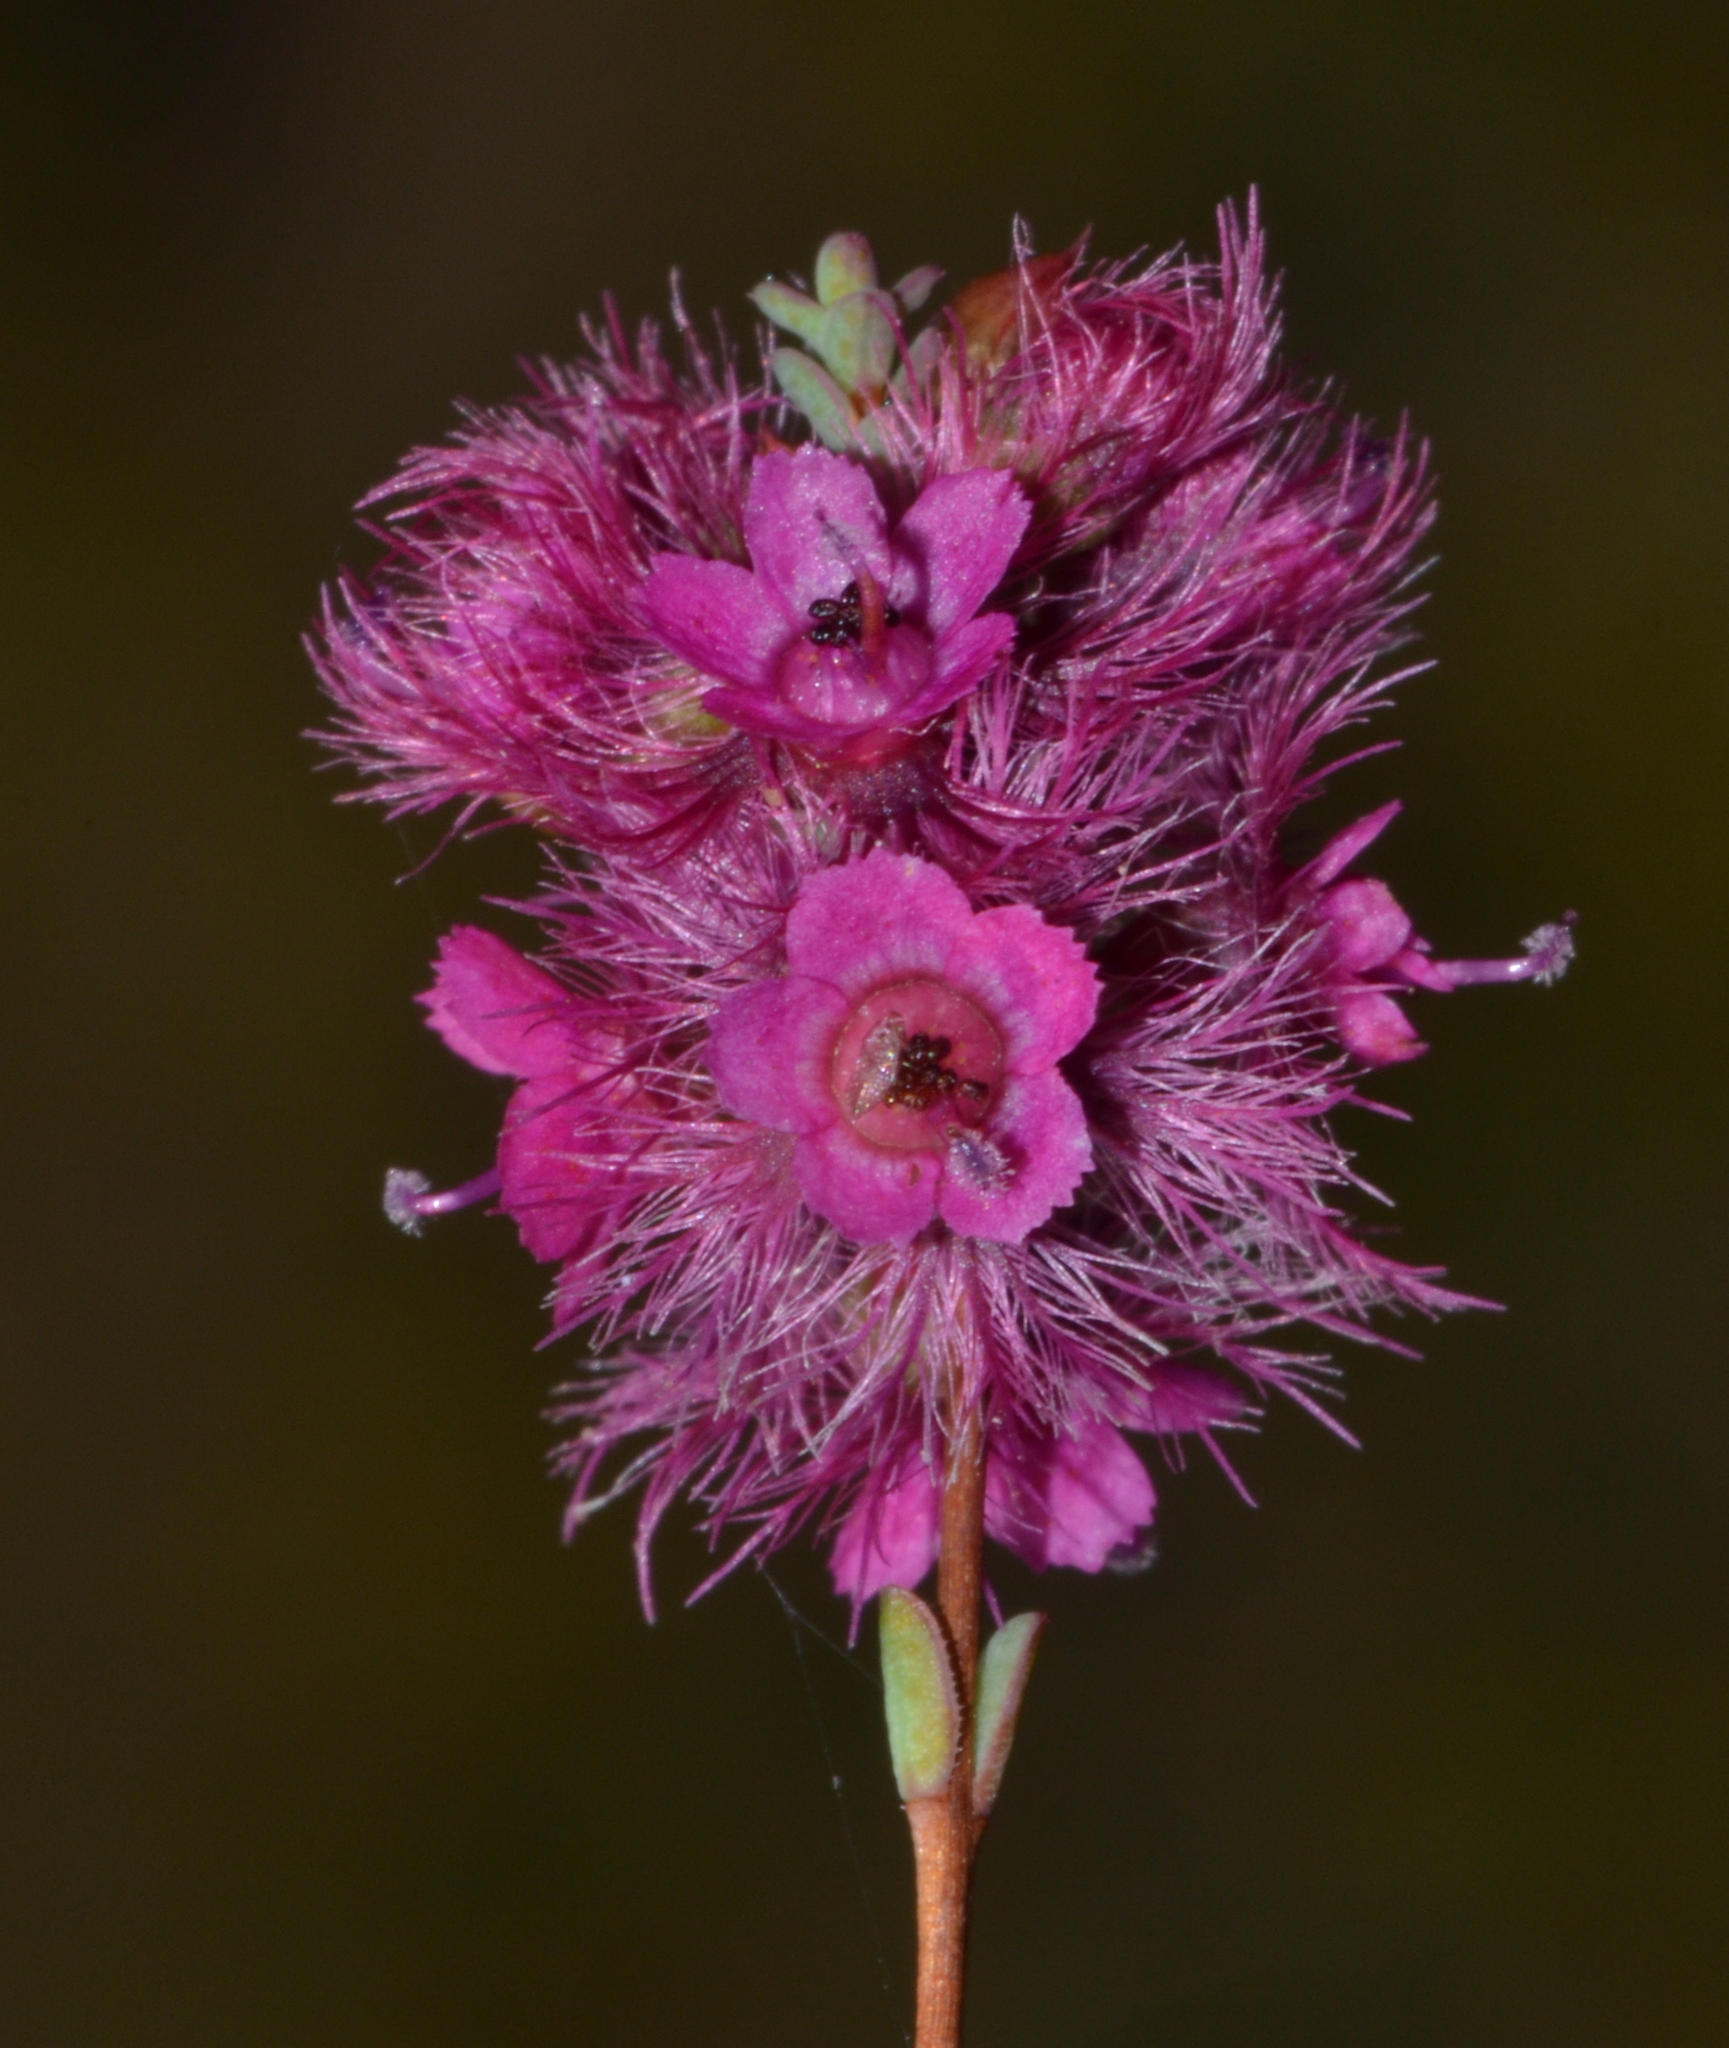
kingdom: Plantae
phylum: Tracheophyta
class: Magnoliopsida
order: Myrtales
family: Myrtaceae
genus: Verticordia
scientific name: Verticordia lindleyi
